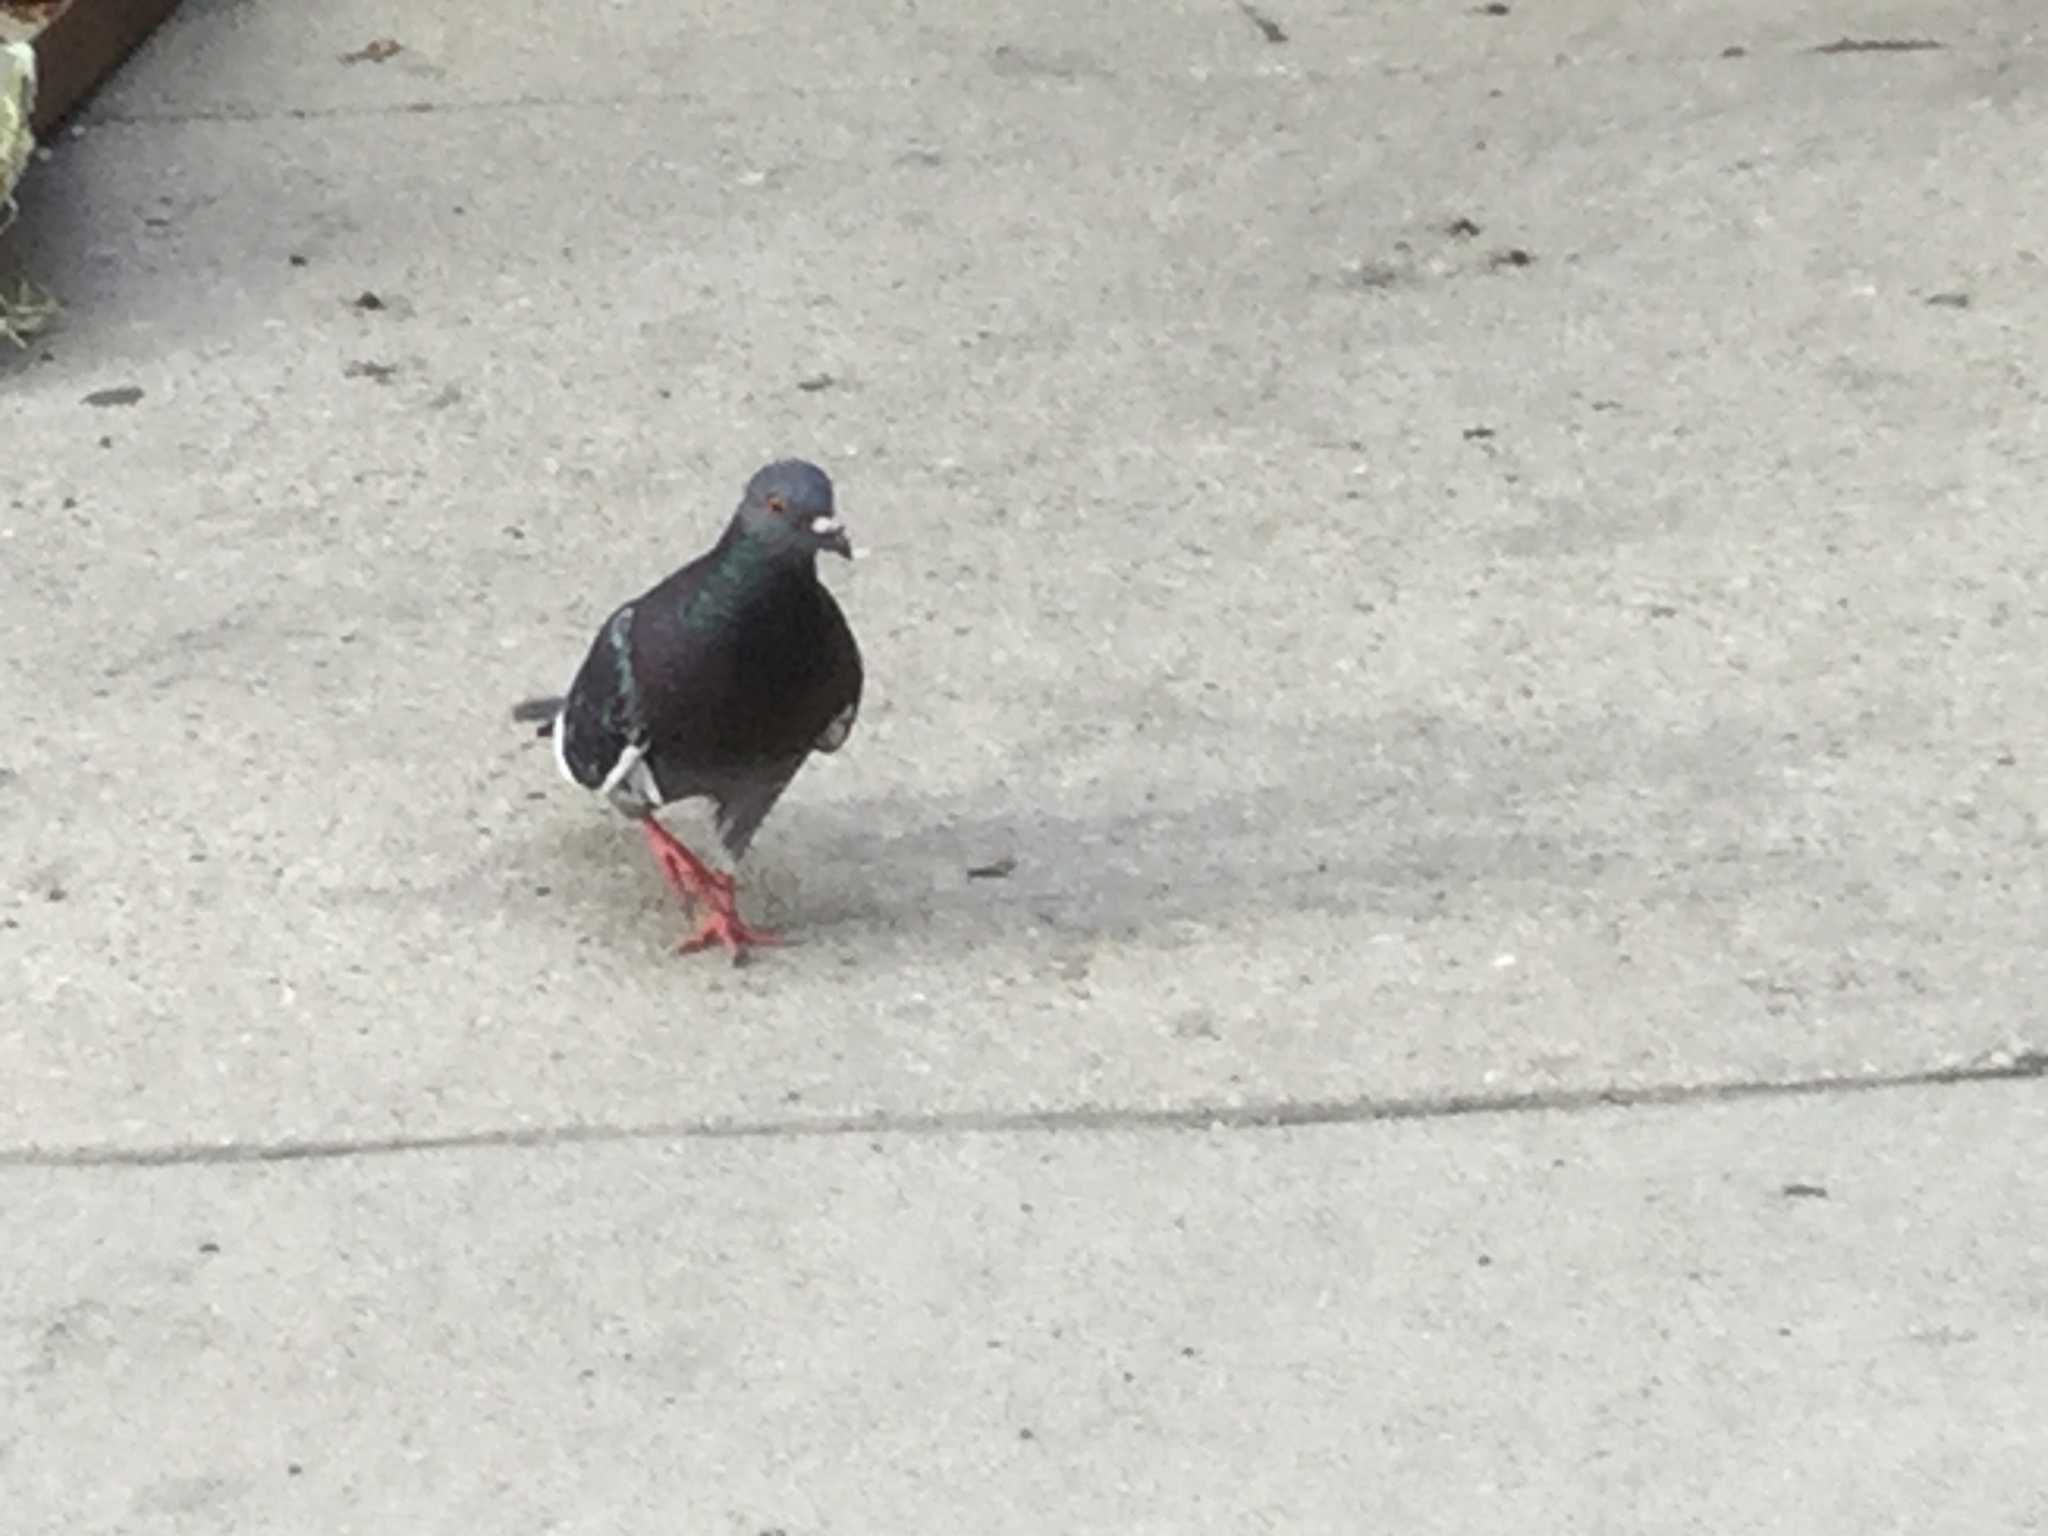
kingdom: Animalia
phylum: Chordata
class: Aves
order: Columbiformes
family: Columbidae
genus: Columba
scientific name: Columba livia
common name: Rock pigeon
